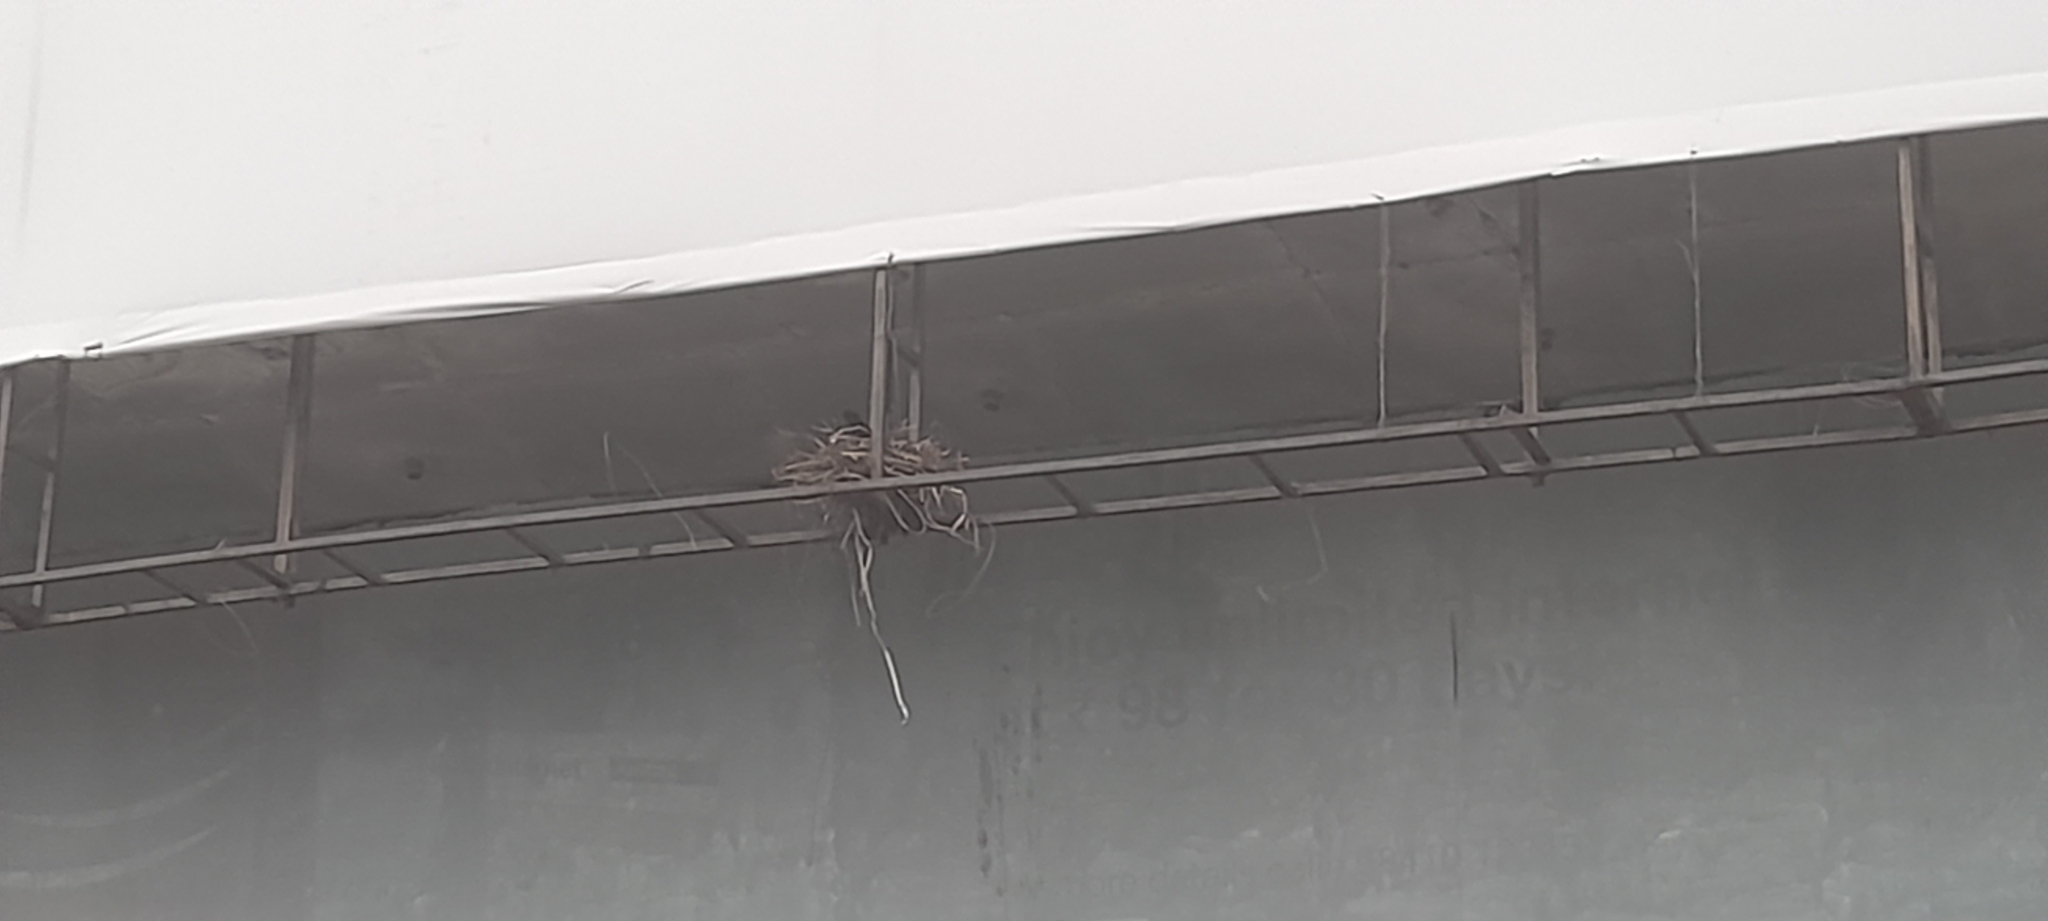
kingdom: Animalia
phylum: Chordata
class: Aves
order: Passeriformes
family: Corvidae
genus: Corvus
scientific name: Corvus splendens
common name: House crow
